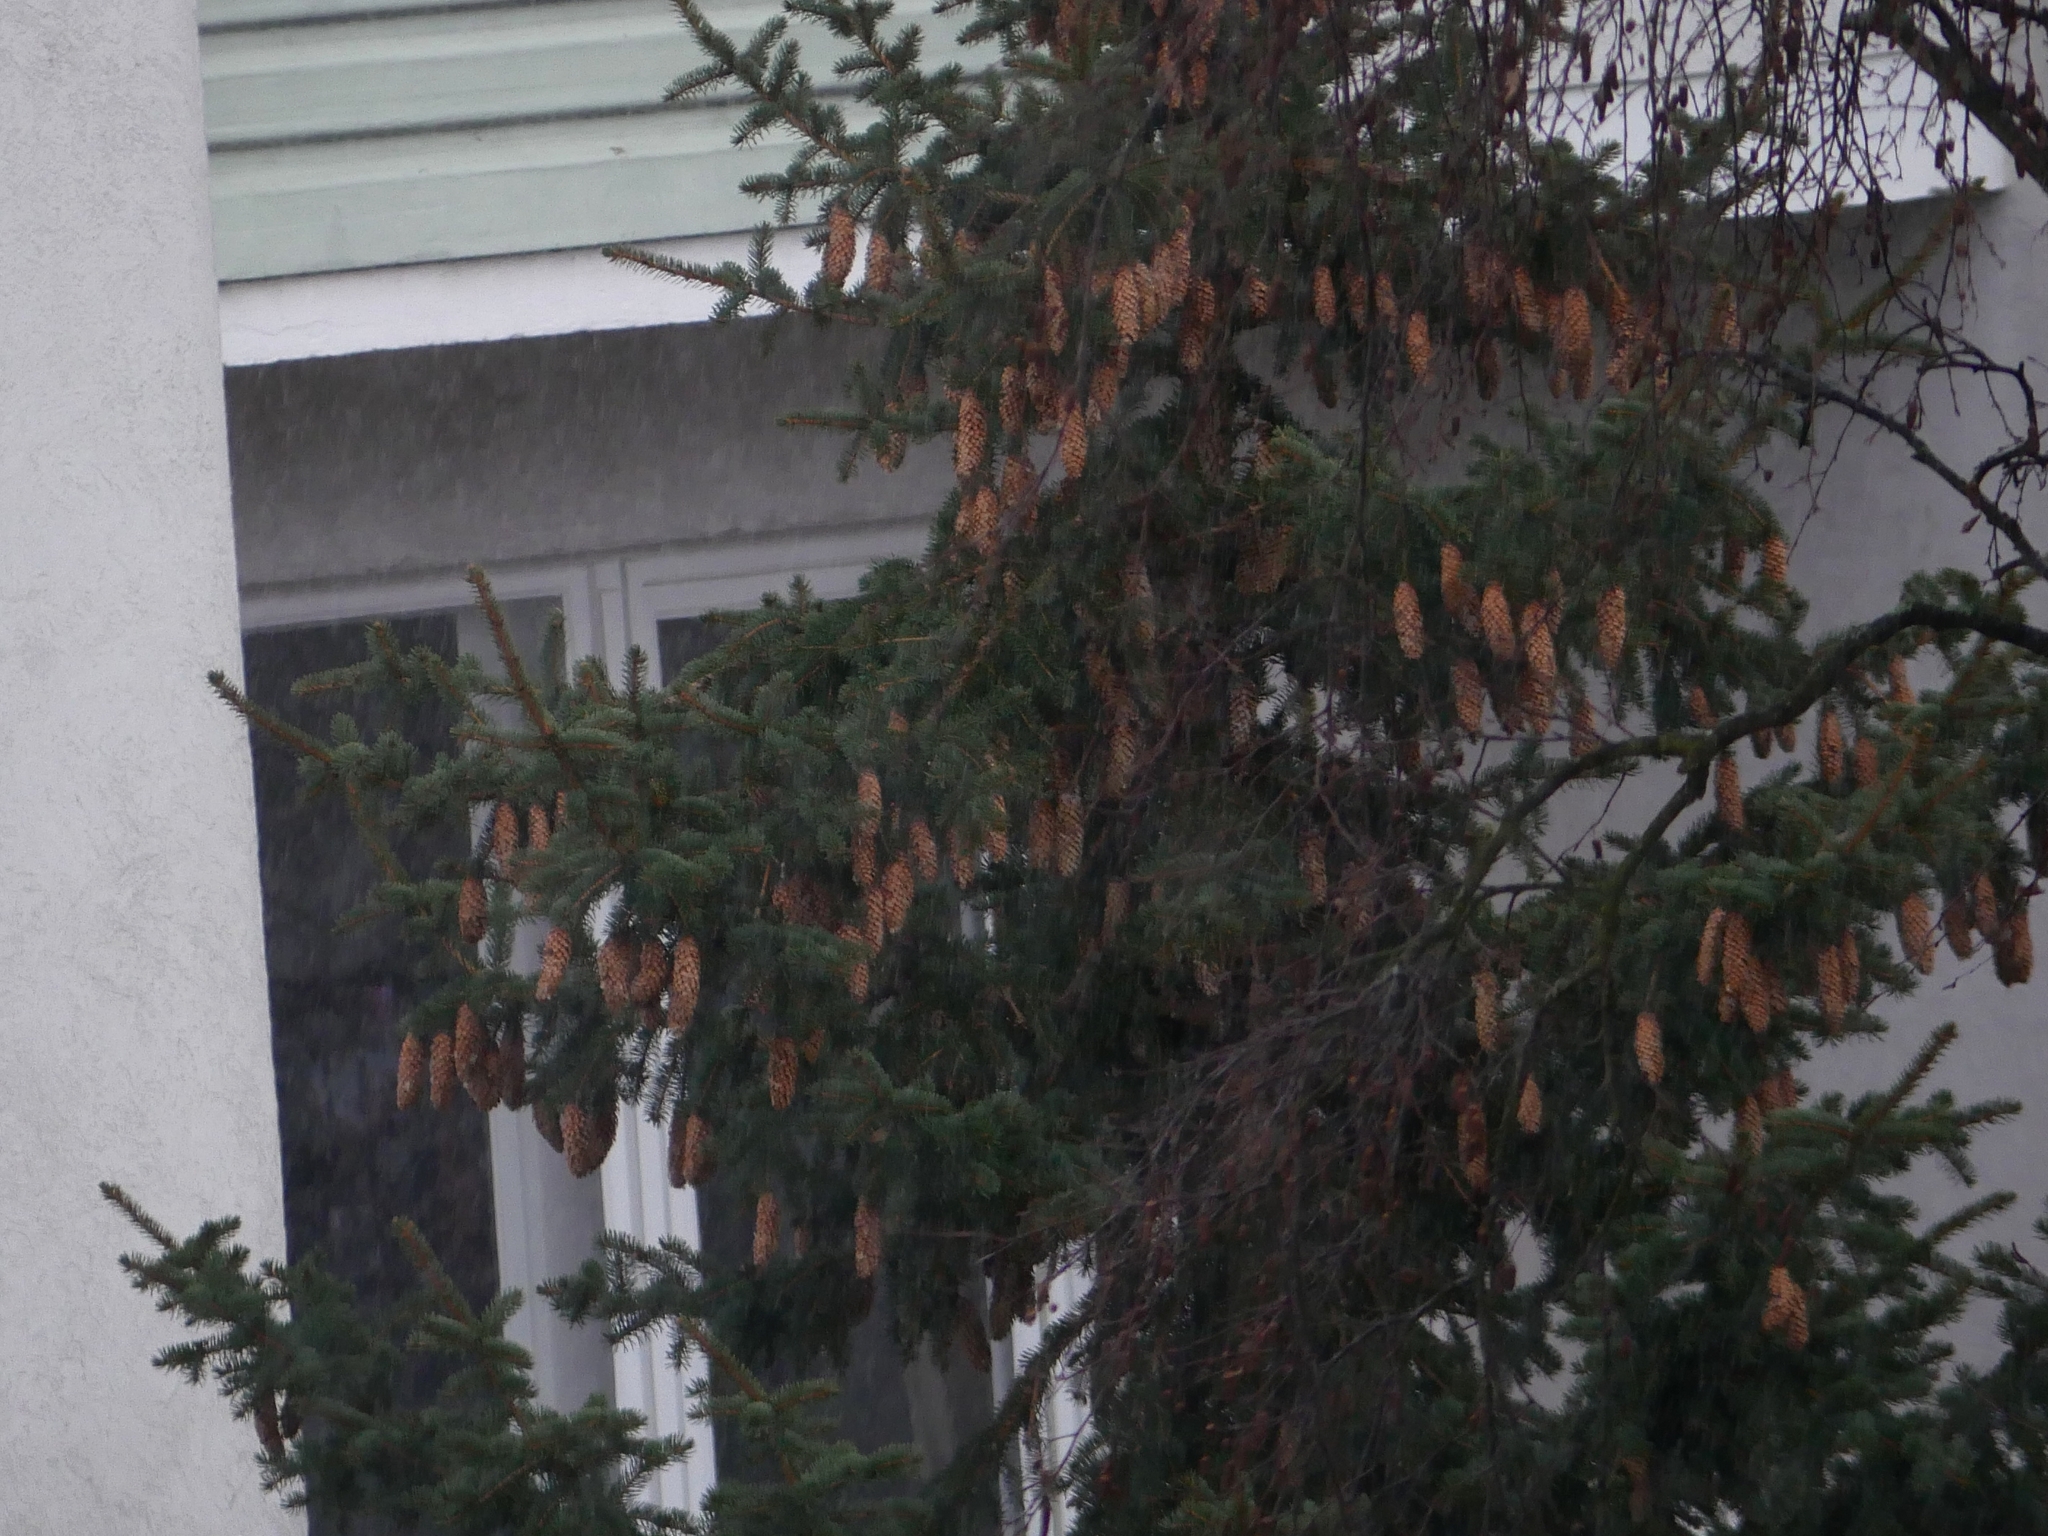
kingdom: Plantae
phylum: Tracheophyta
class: Pinopsida
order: Pinales
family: Pinaceae
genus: Picea
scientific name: Picea abies
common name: Norway spruce
